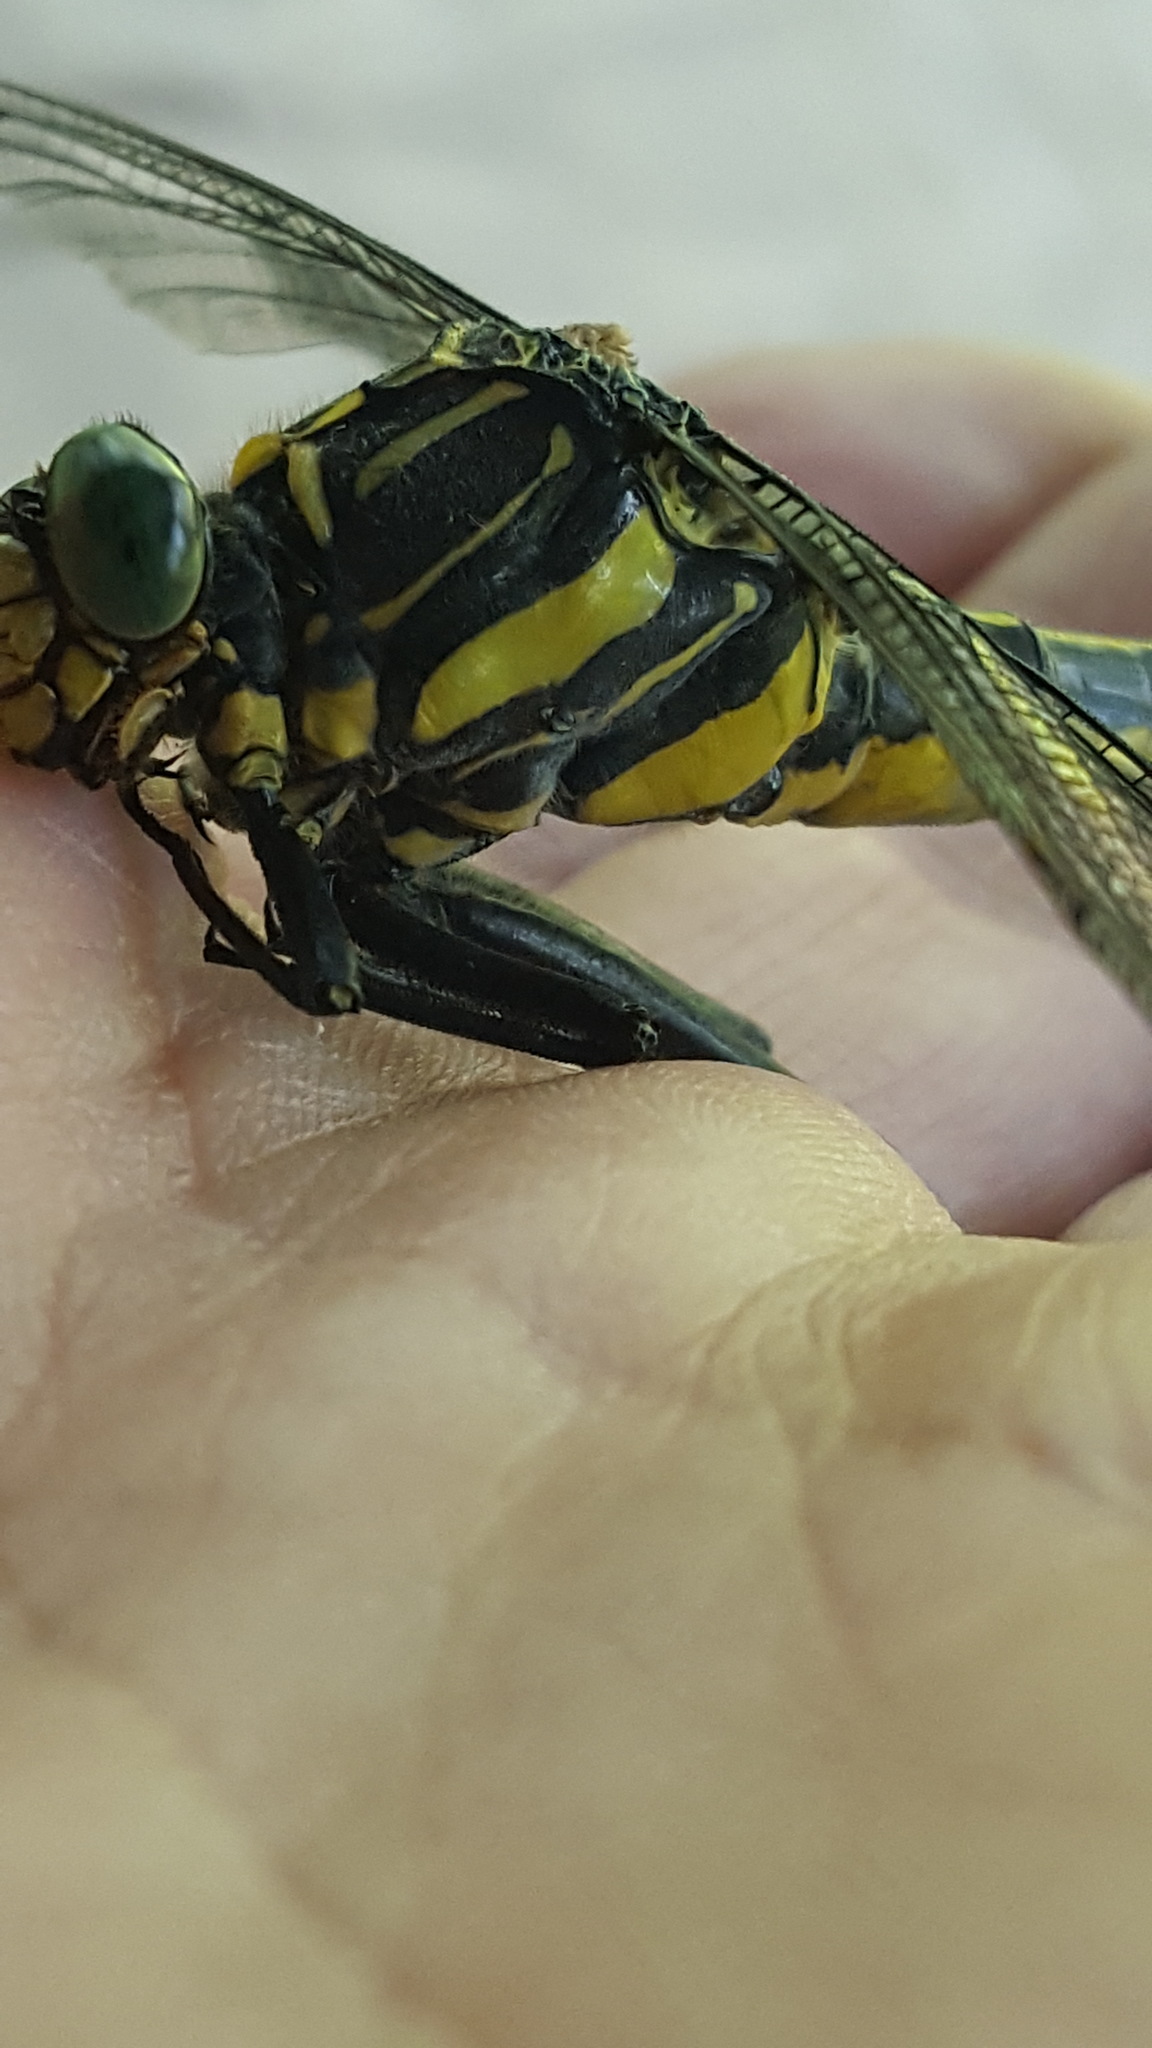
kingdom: Animalia
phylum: Arthropoda
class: Insecta
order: Odonata
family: Gomphidae
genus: Hagenius
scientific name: Hagenius brevistylus
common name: Dragonhunter
